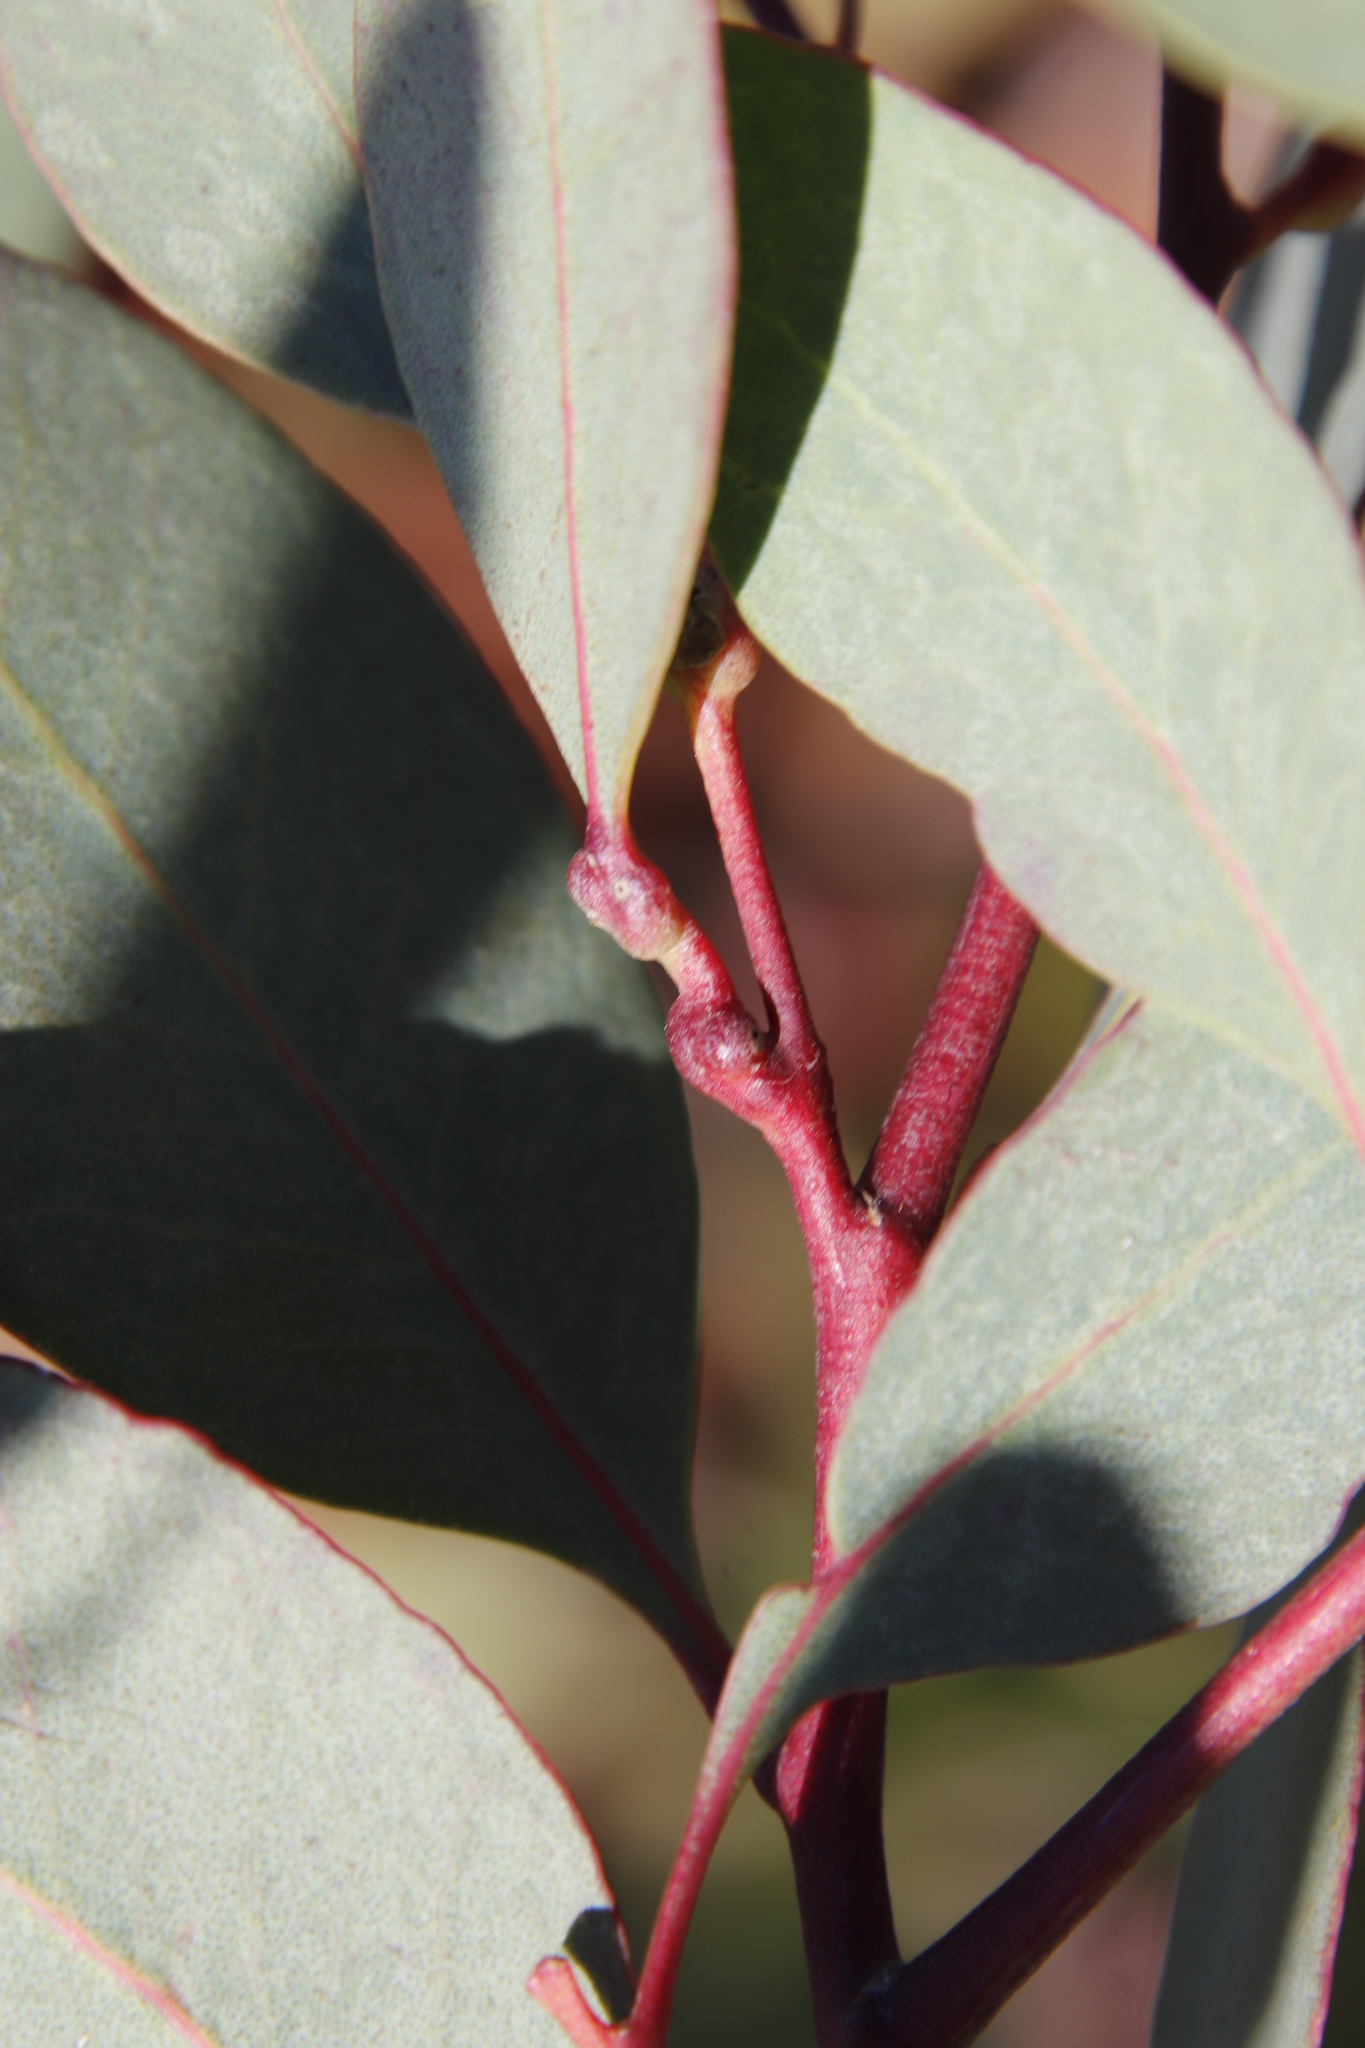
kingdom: Animalia
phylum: Arthropoda
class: Insecta
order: Hymenoptera
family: Eulophidae
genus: Leptocybe
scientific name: Leptocybe invasa
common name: Gall wasp
